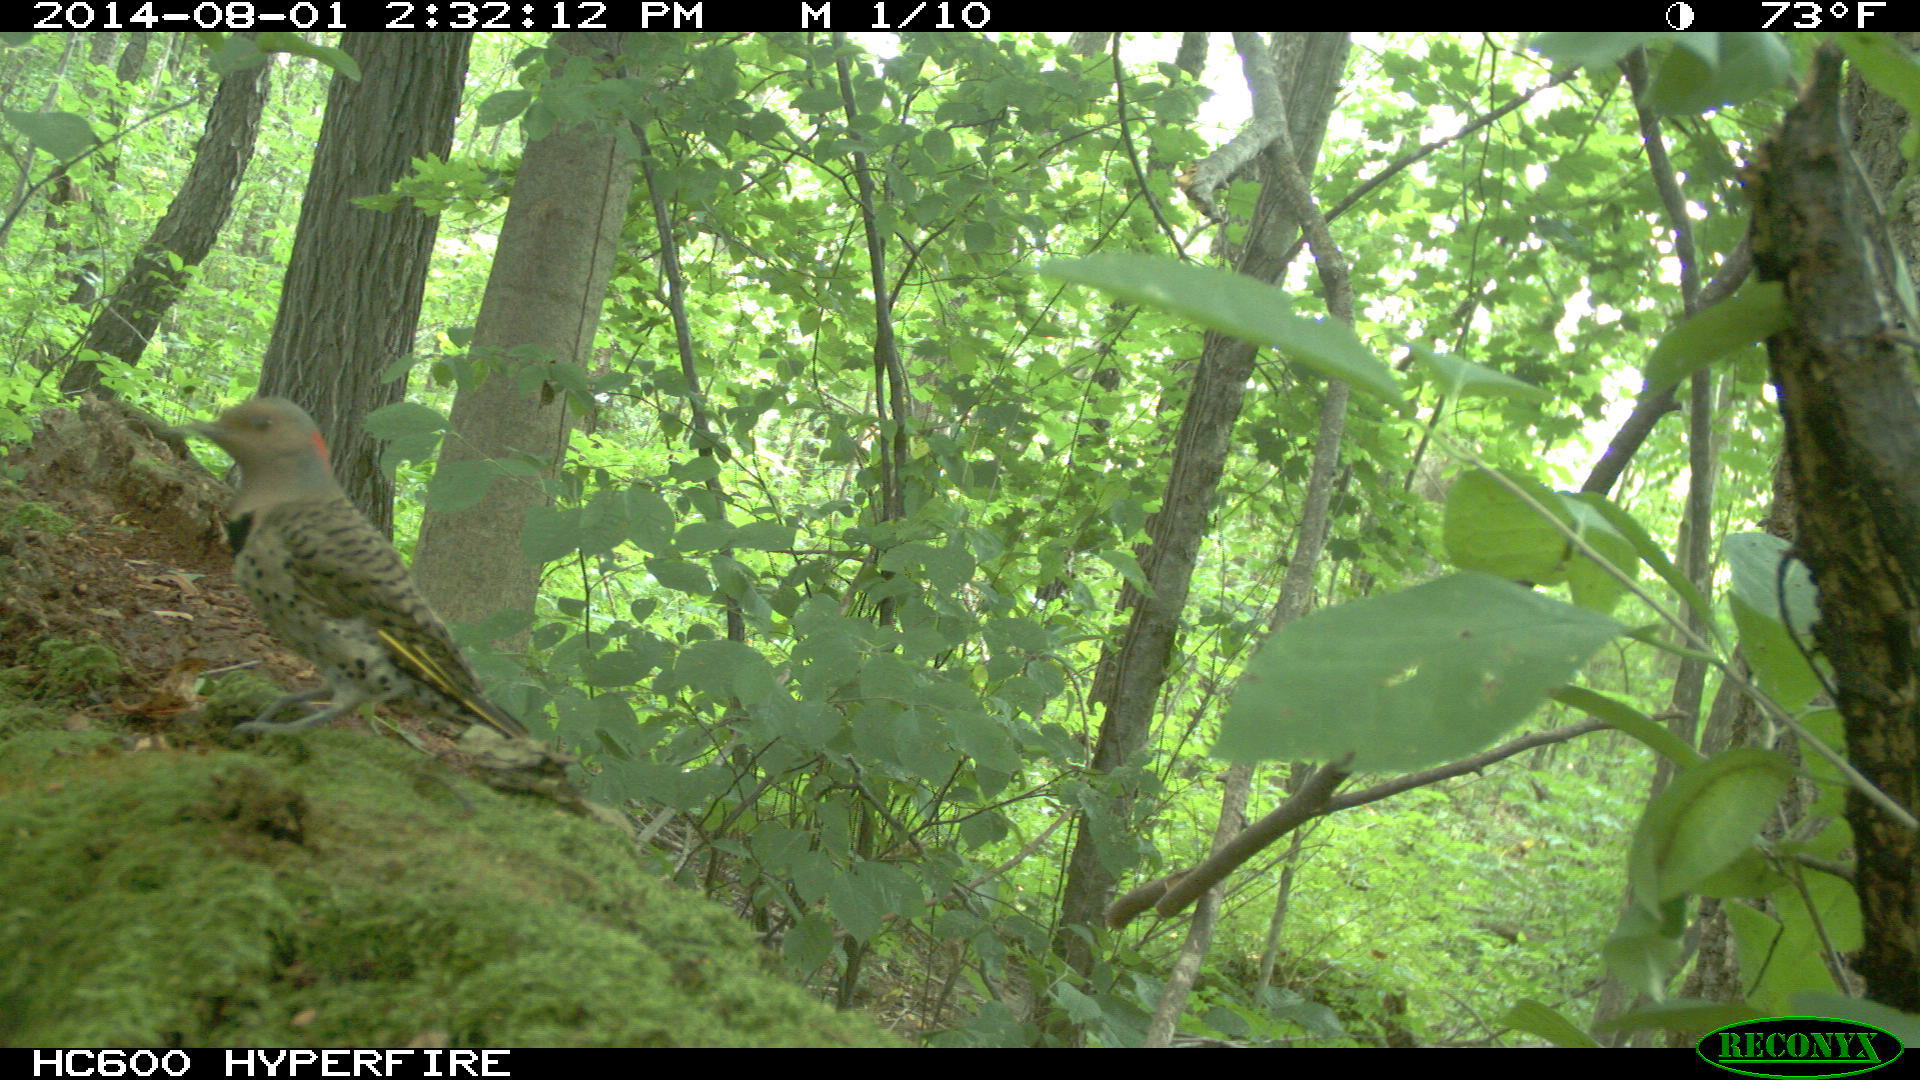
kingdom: Animalia
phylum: Chordata
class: Aves
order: Piciformes
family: Picidae
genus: Colaptes
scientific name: Colaptes auratus
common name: Northern flicker
